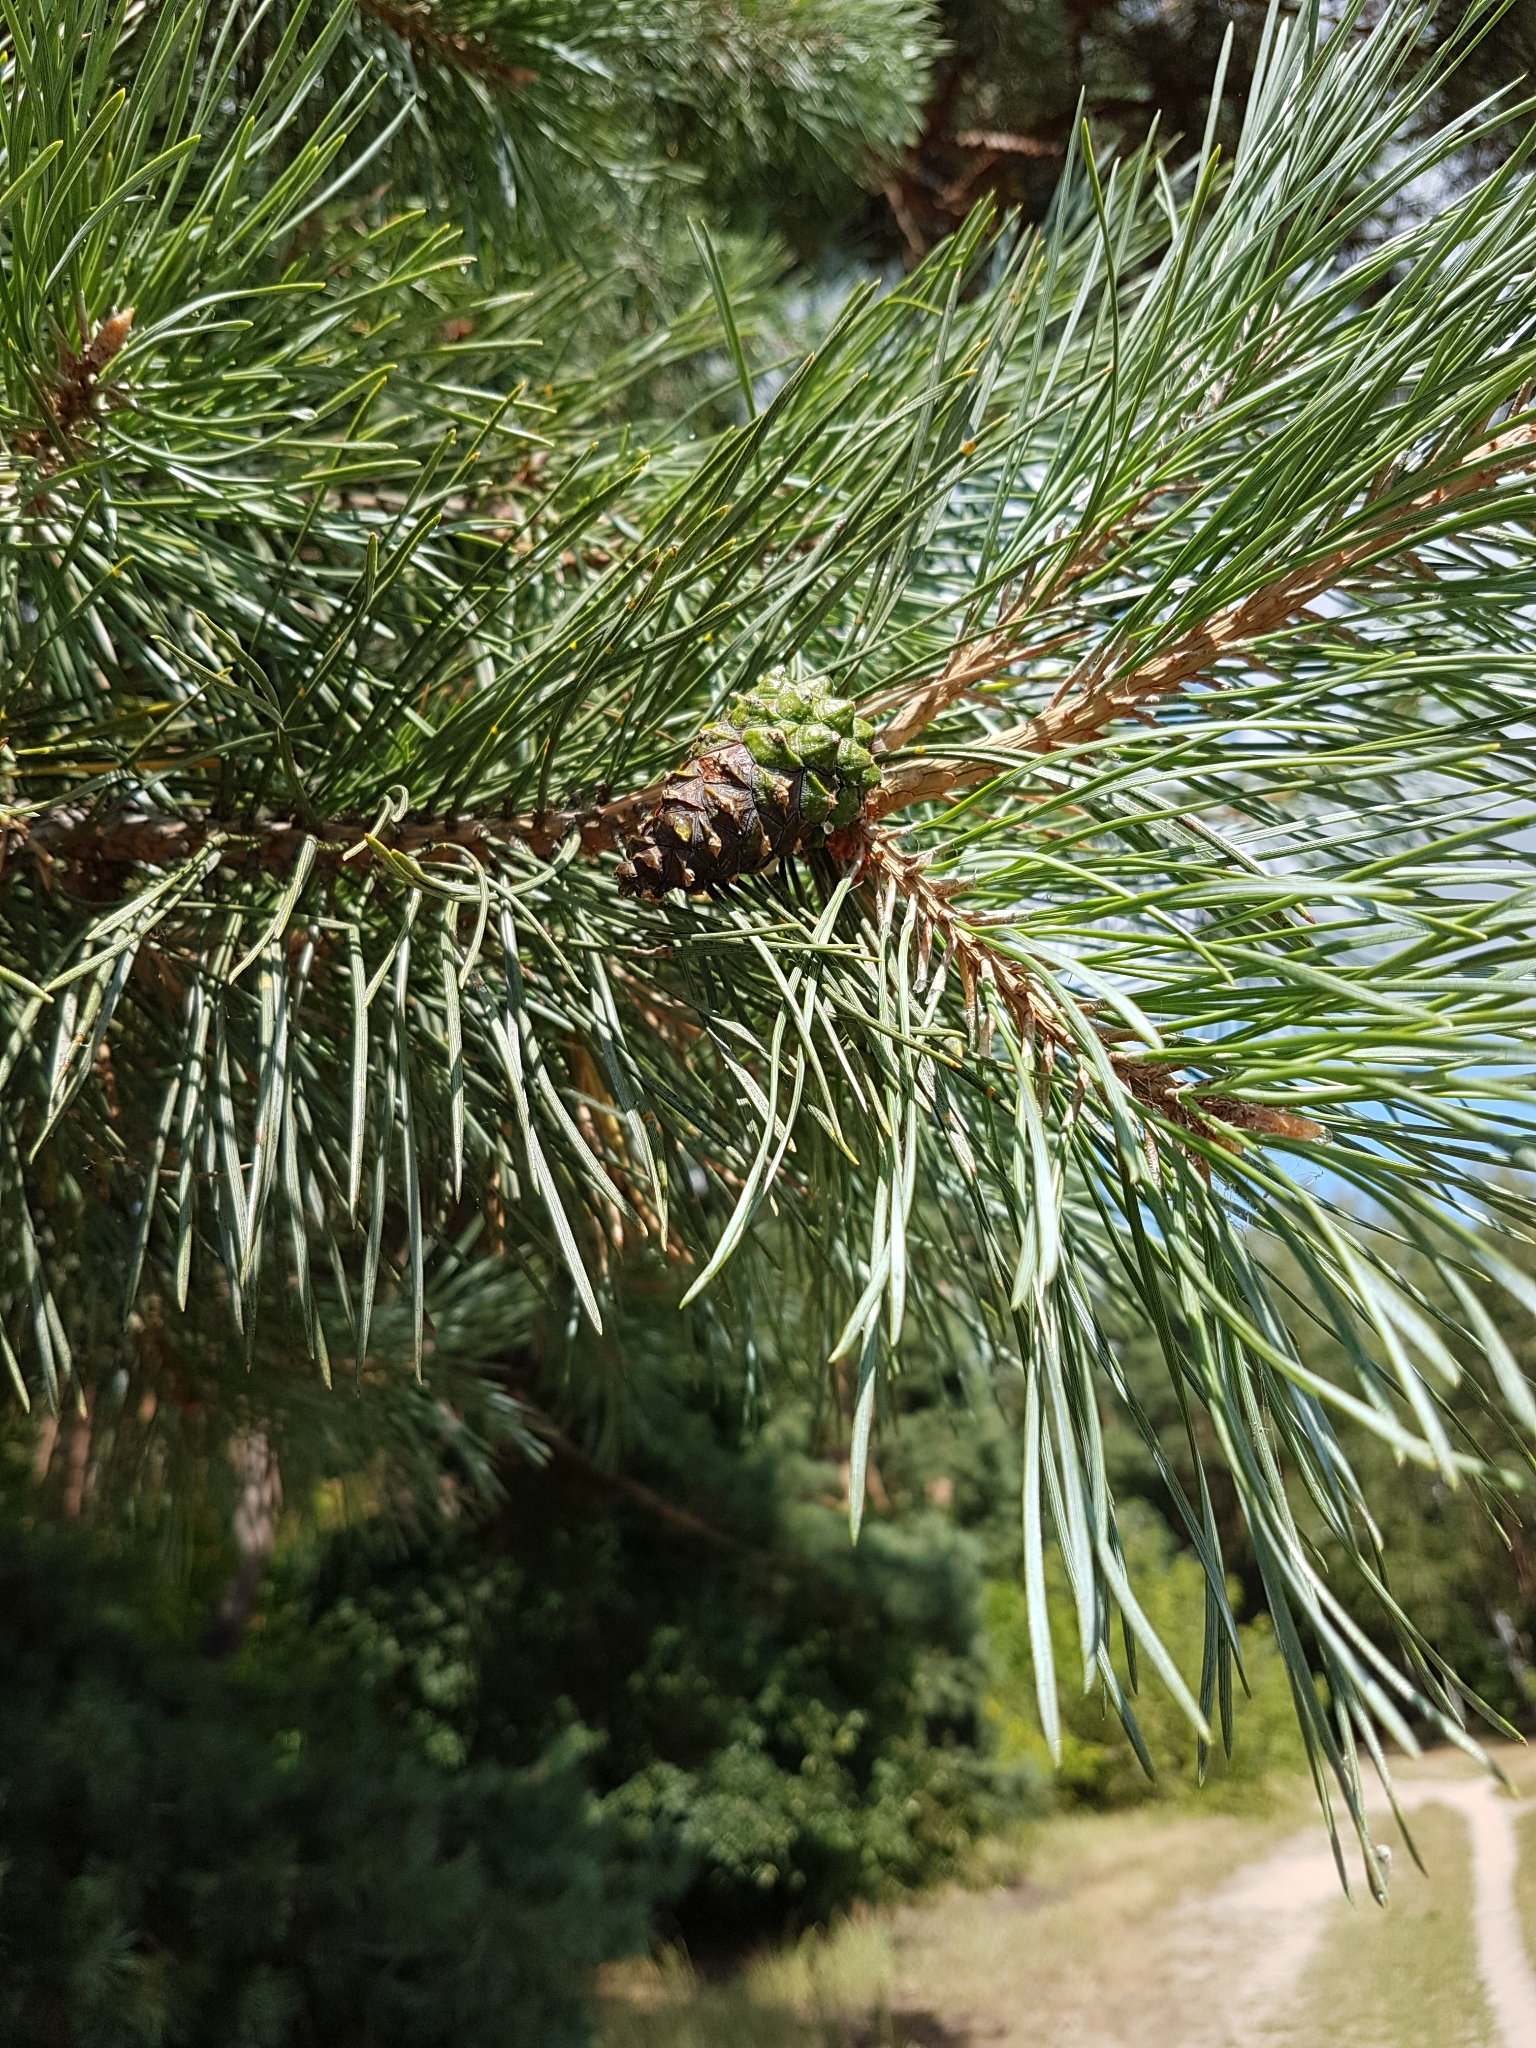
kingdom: Plantae
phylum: Tracheophyta
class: Pinopsida
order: Pinales
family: Pinaceae
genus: Pinus
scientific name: Pinus sylvestris
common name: Scots pine
